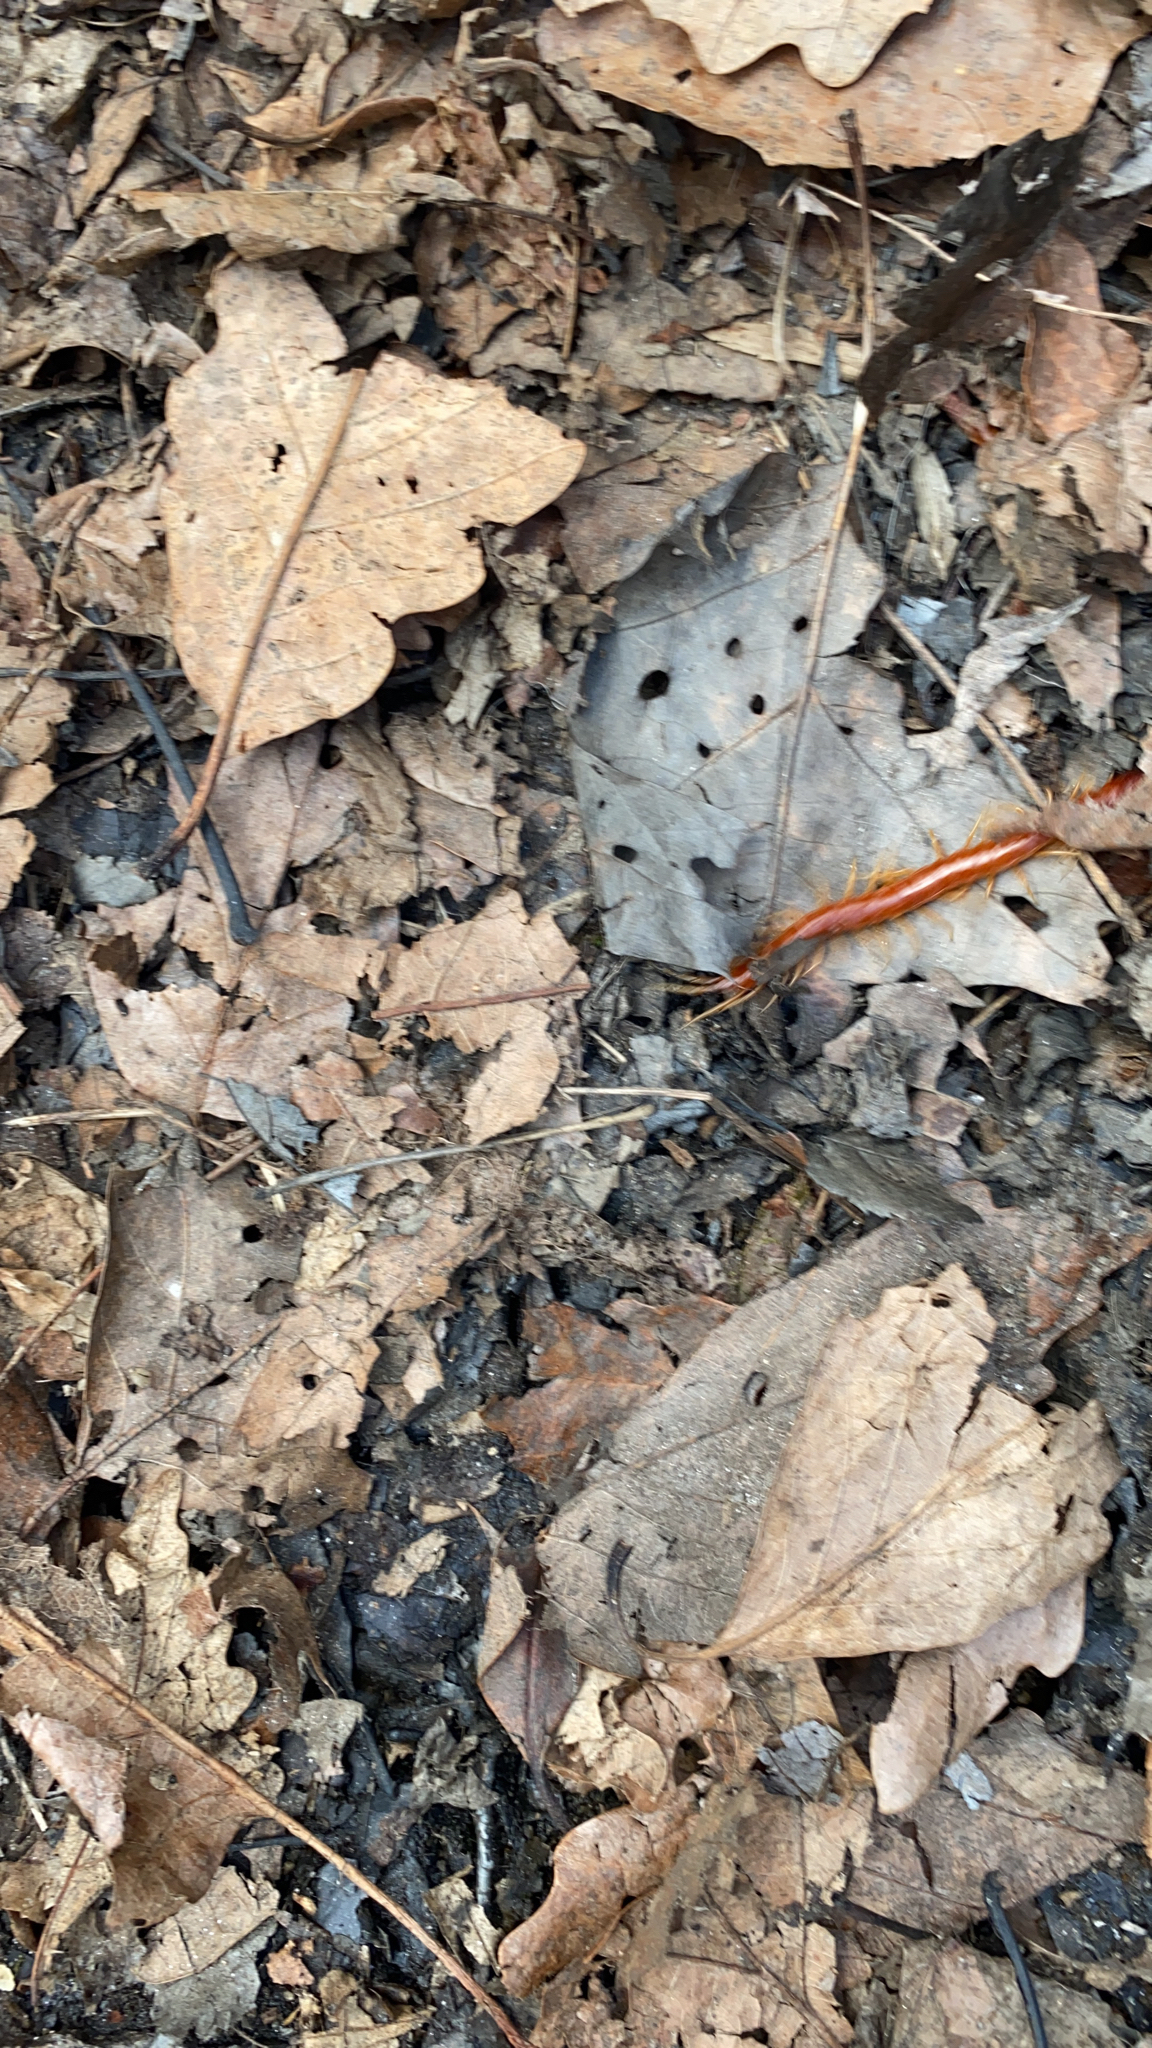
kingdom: Animalia
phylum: Arthropoda
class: Chilopoda
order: Scolopendromorpha
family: Scolopocryptopidae
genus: Scolopocryptops
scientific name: Scolopocryptops sexspinosus
